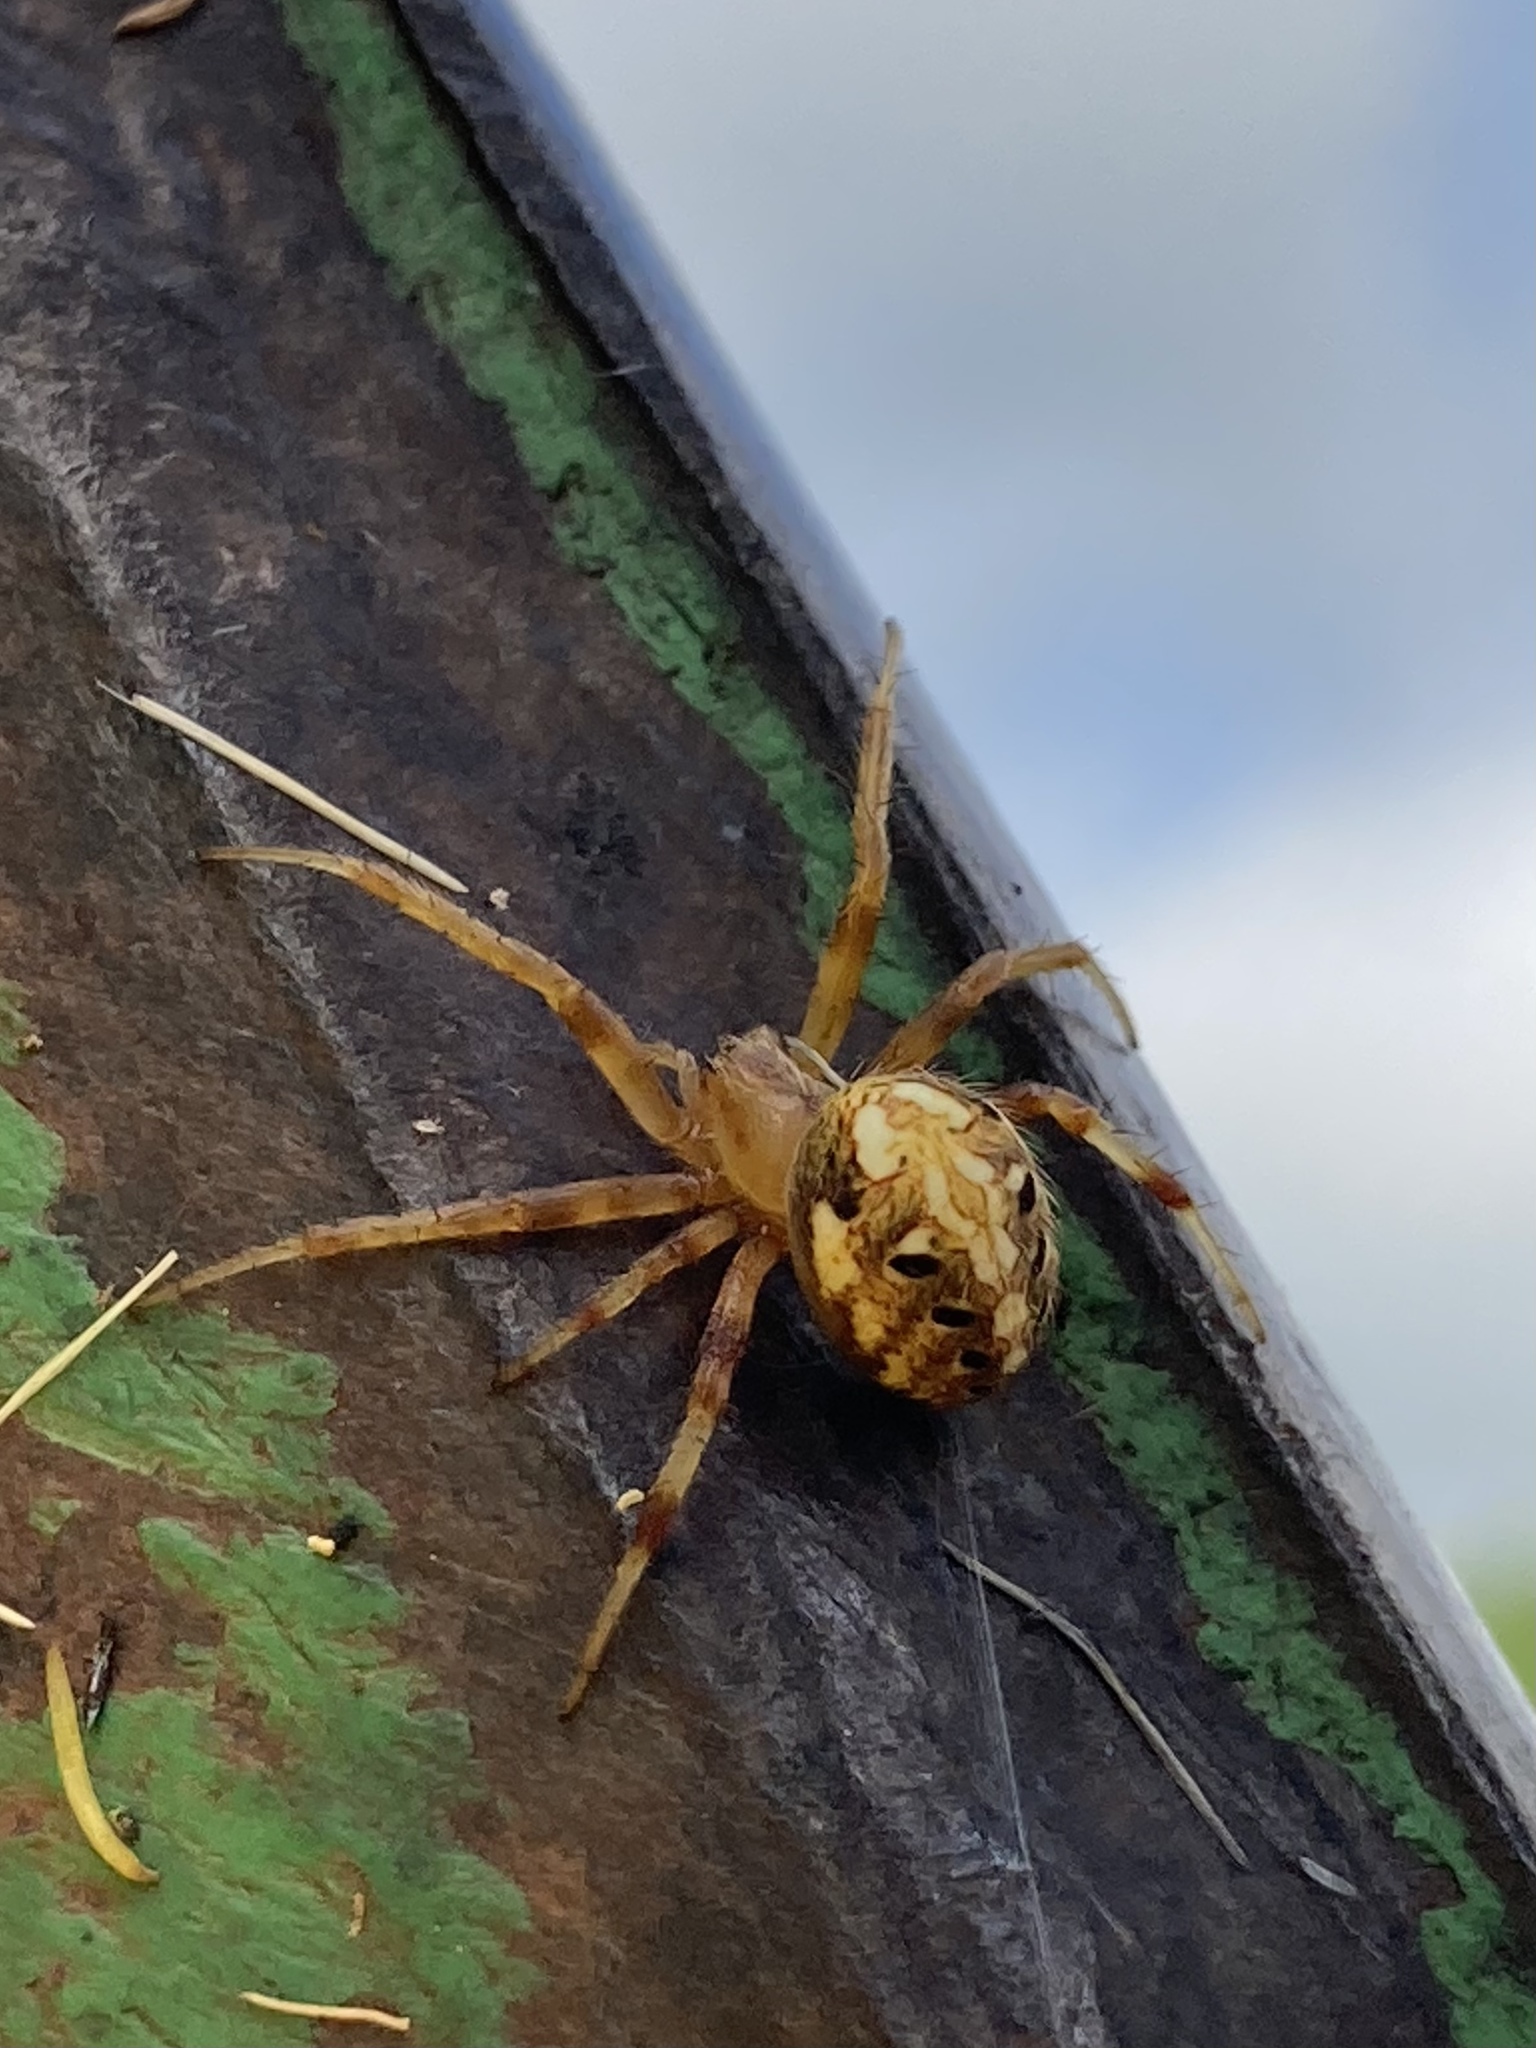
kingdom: Animalia
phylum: Arthropoda
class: Arachnida
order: Araneae
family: Araneidae
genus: Neoscona
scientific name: Neoscona arabesca
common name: Orb weavers
